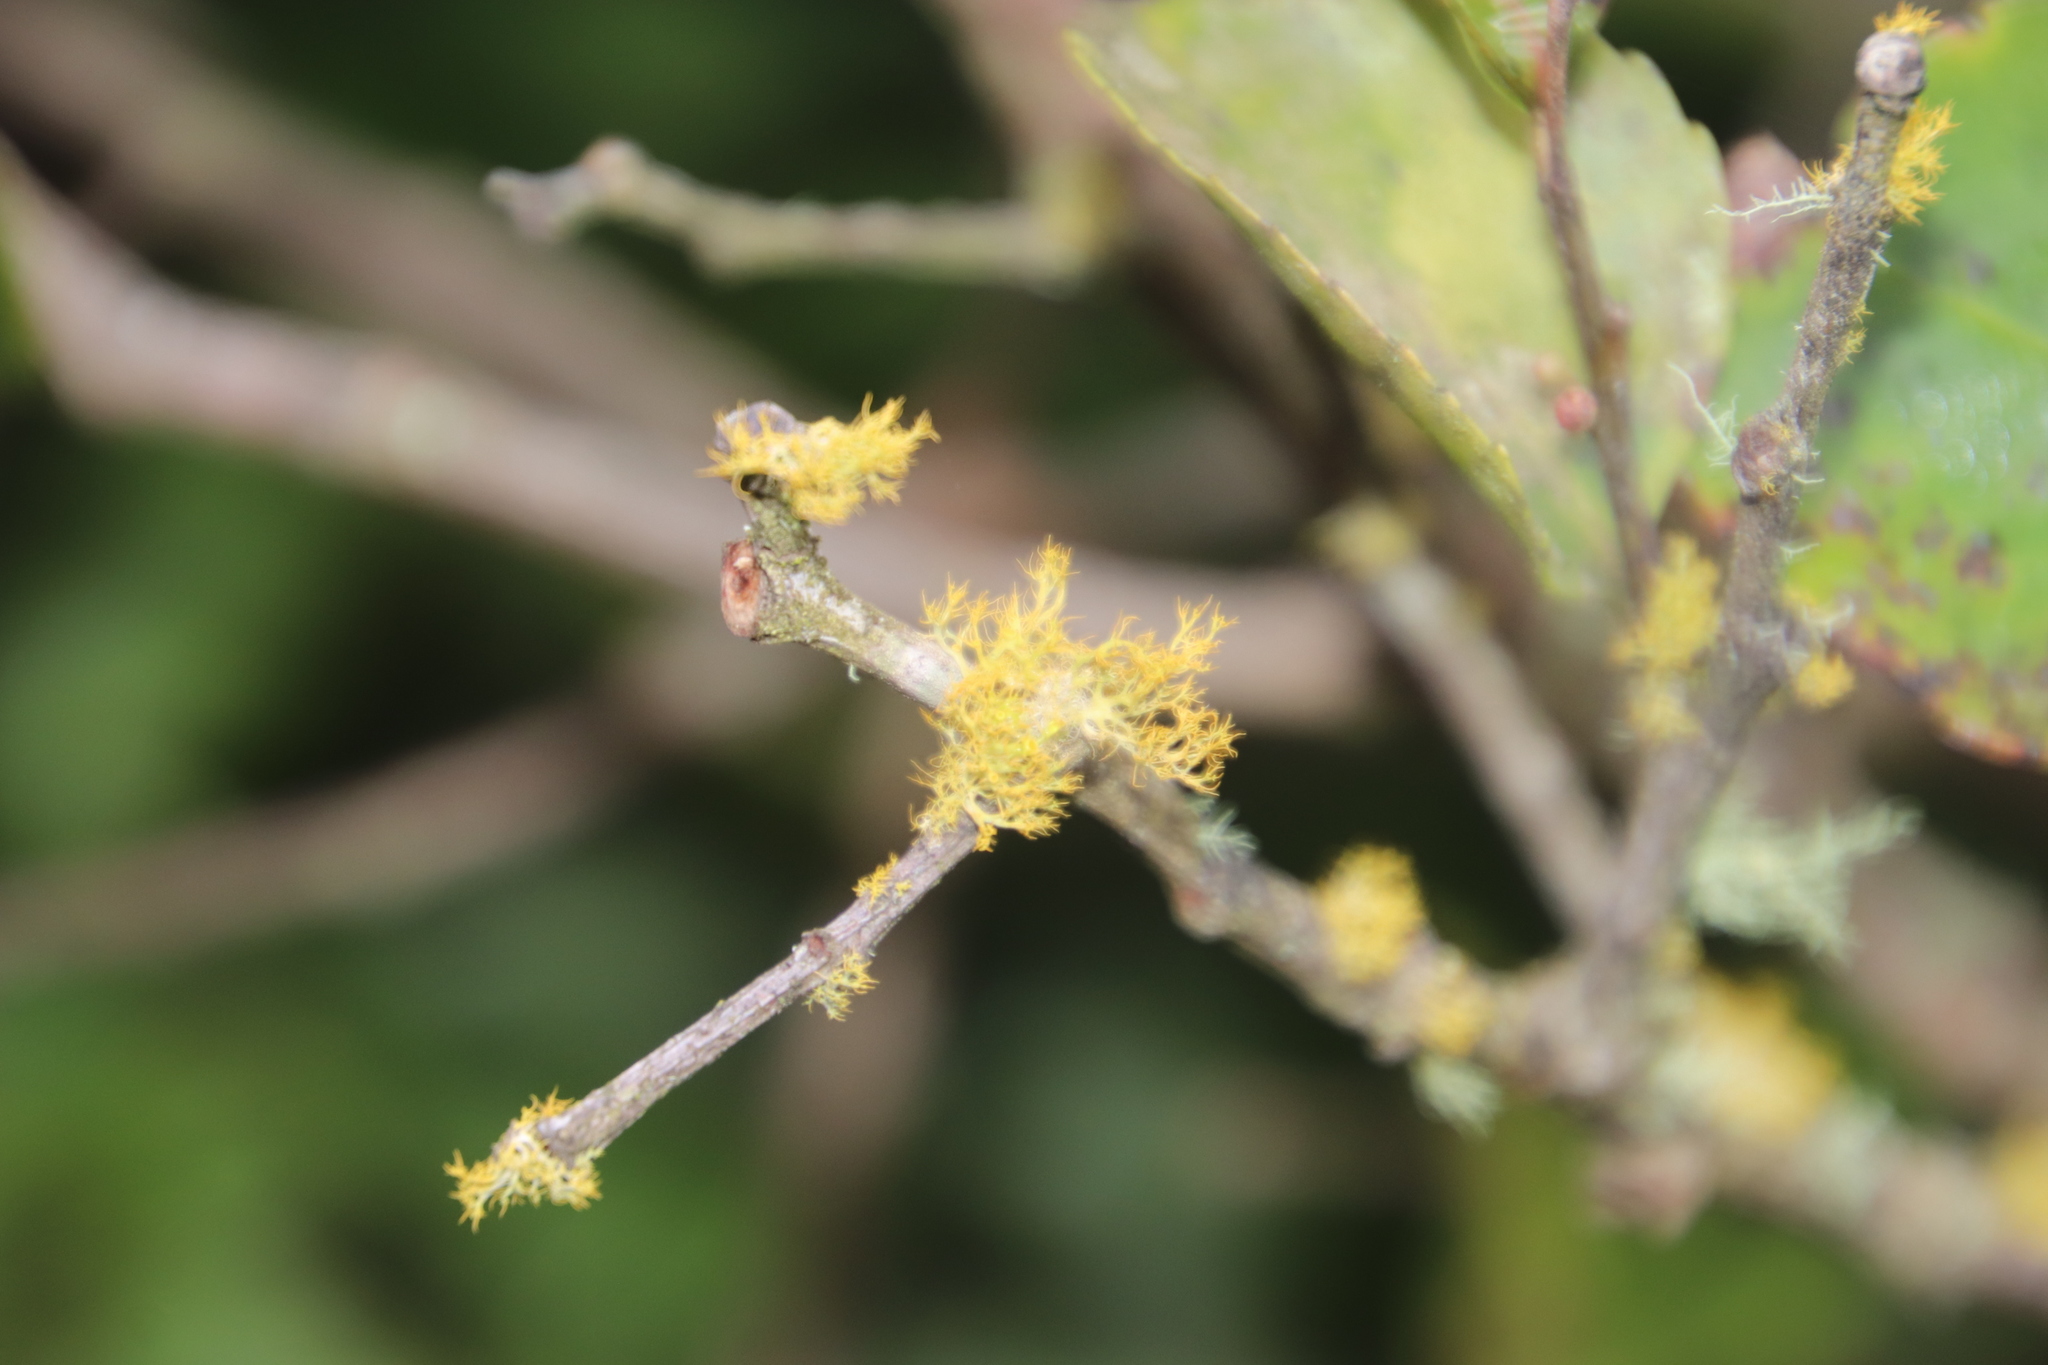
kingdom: Fungi
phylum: Ascomycota
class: Lecanoromycetes
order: Teloschistales
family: Teloschistaceae
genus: Teloschistes
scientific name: Teloschistes exilis
